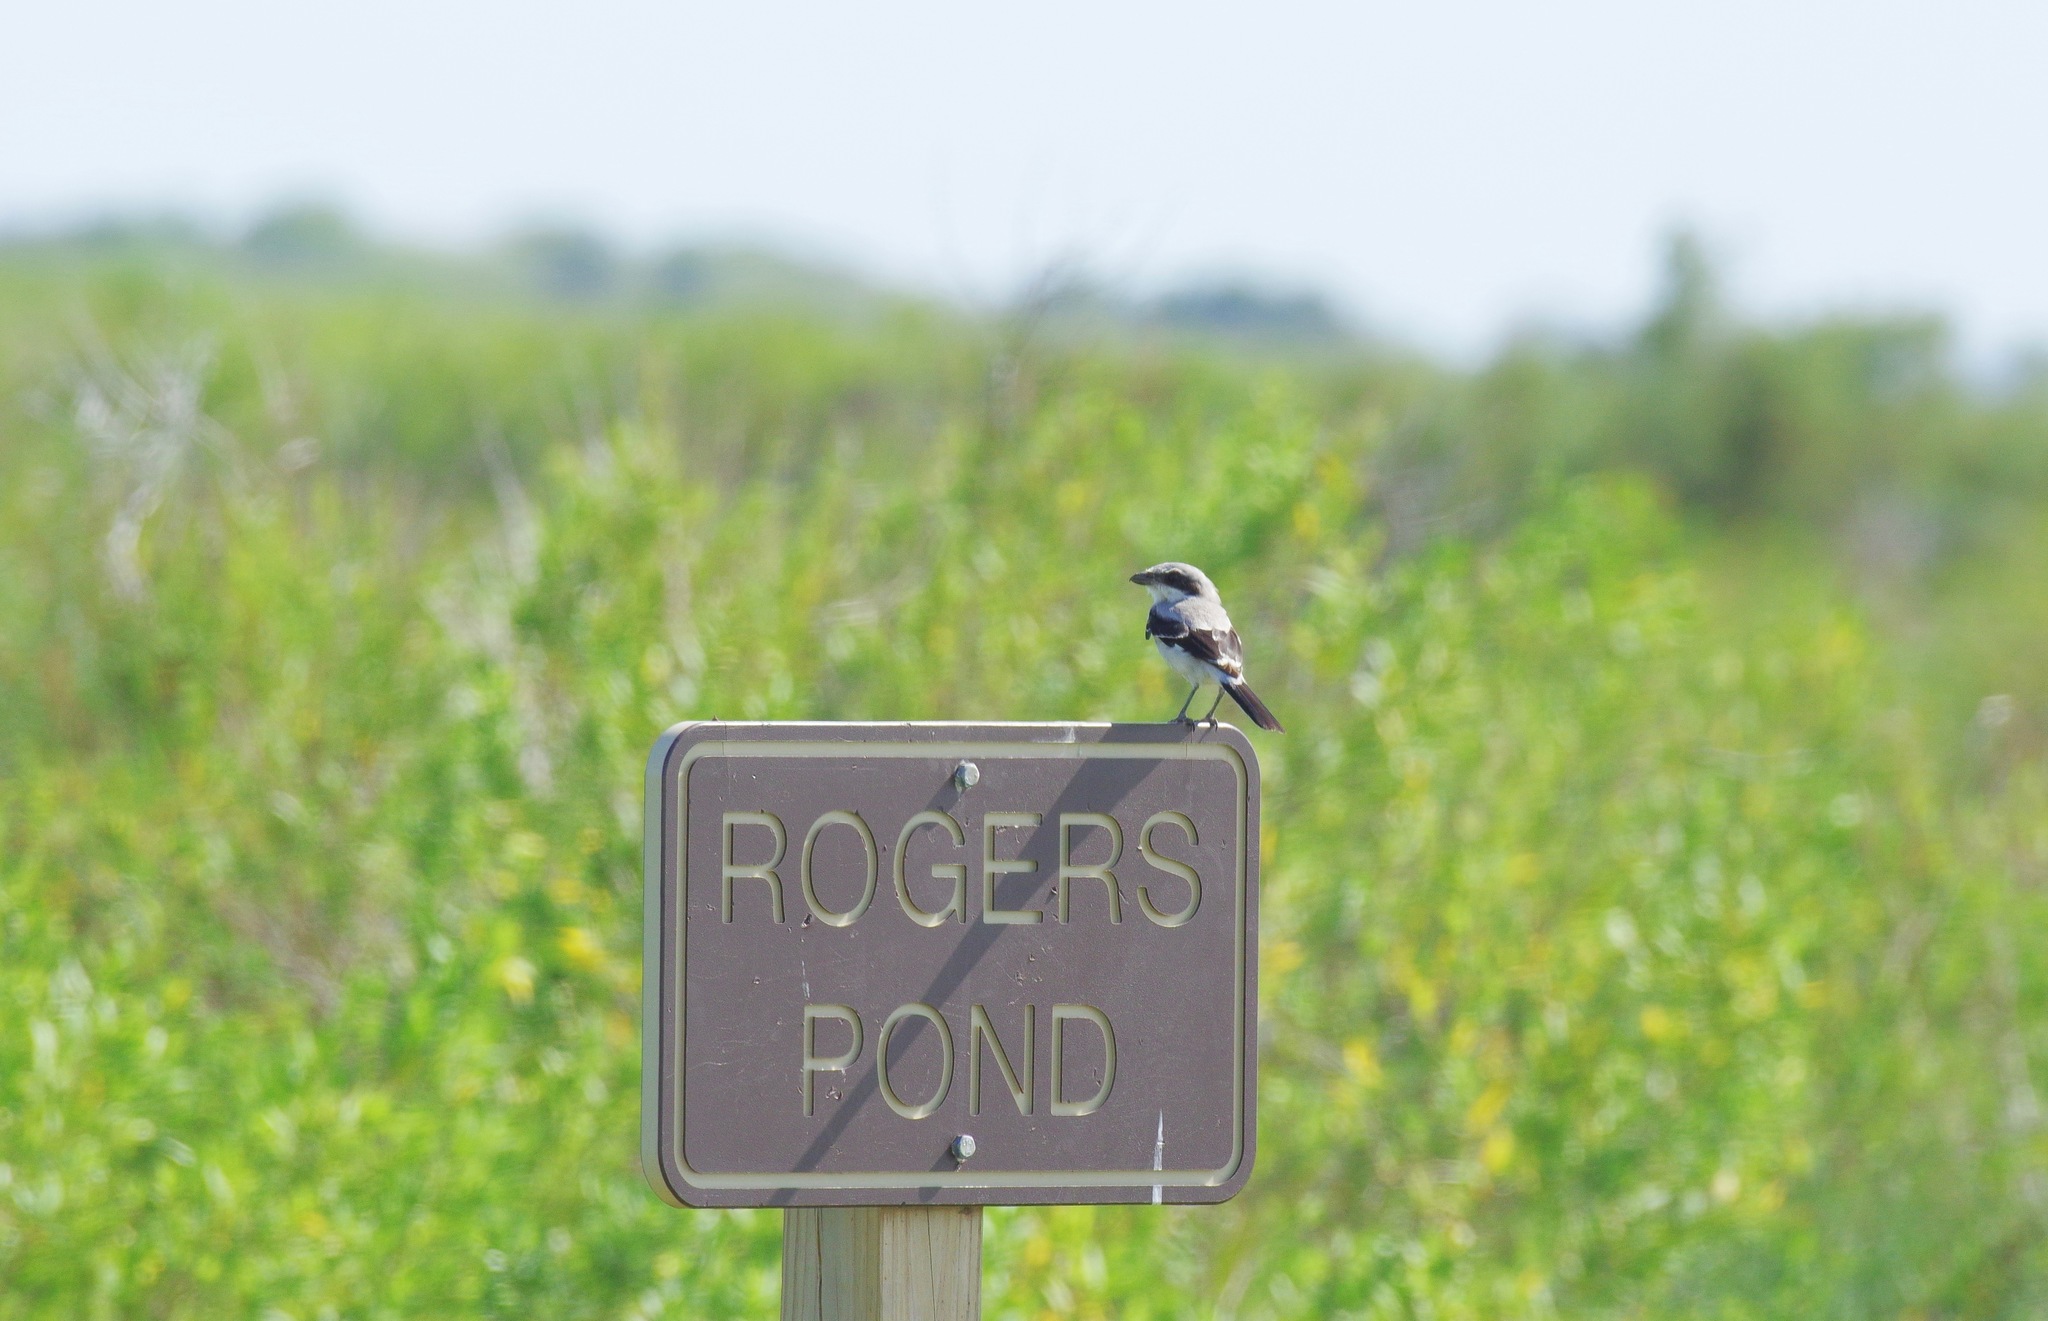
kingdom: Animalia
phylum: Chordata
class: Aves
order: Passeriformes
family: Laniidae
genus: Lanius
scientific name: Lanius ludovicianus
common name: Loggerhead shrike
